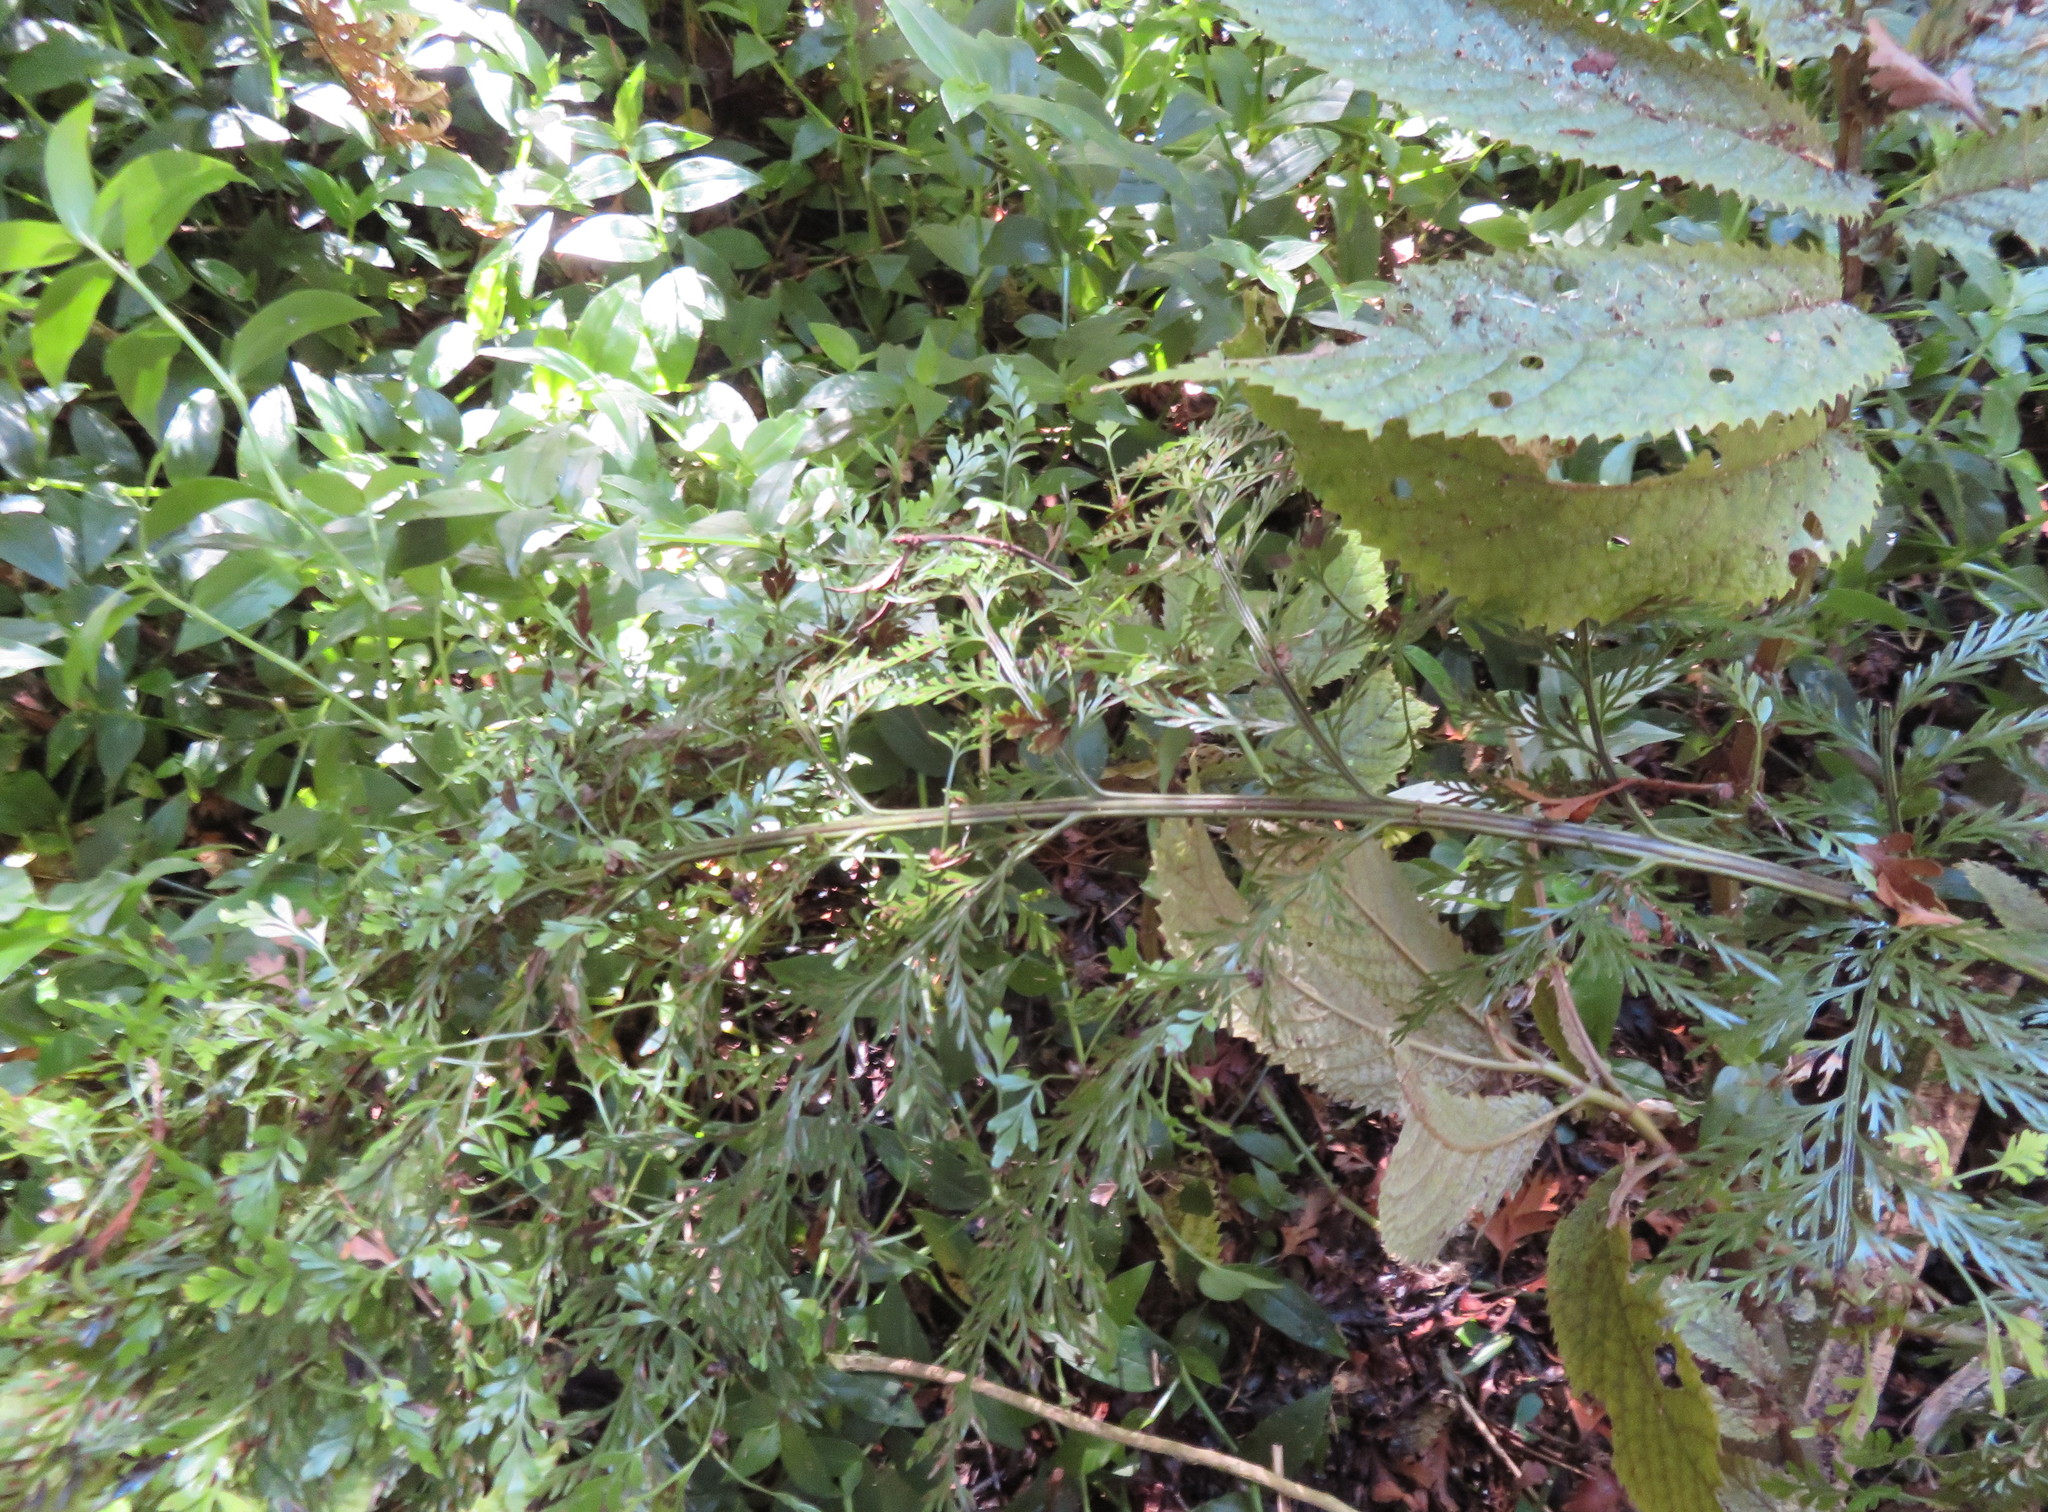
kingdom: Plantae
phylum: Tracheophyta
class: Polypodiopsida
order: Polypodiales
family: Aspleniaceae
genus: Asplenium
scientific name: Asplenium lucrosum
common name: False hen-and-chickens fern
